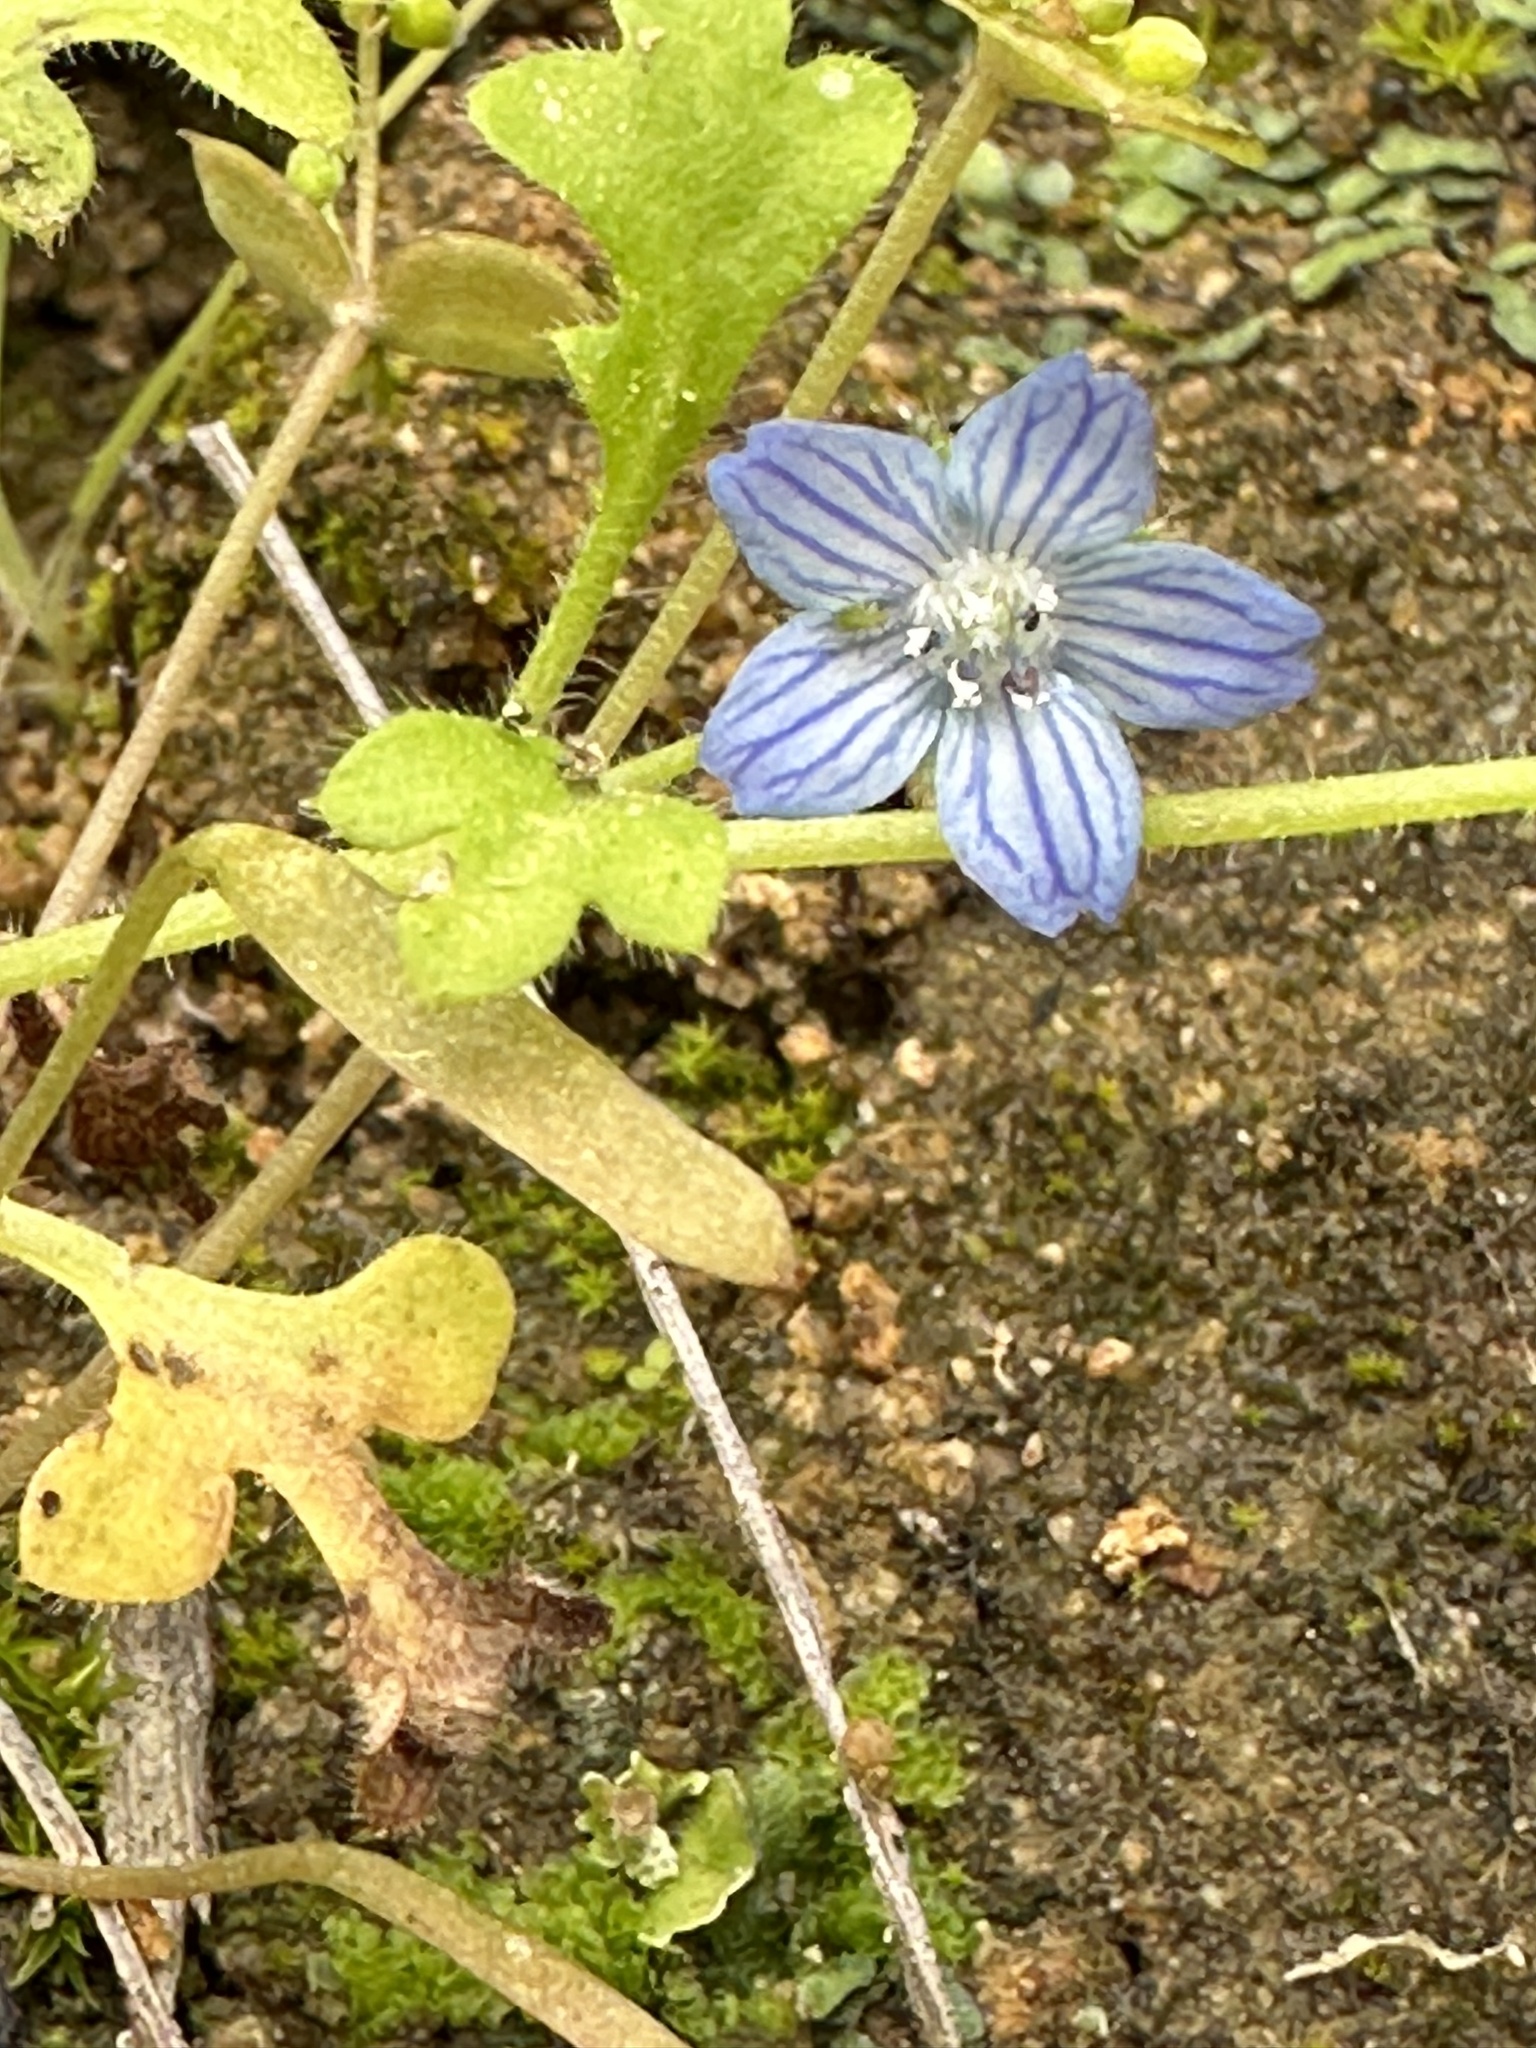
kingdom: Plantae
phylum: Tracheophyta
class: Magnoliopsida
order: Boraginales
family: Hydrophyllaceae
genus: Nemophila
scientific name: Nemophila menziesii
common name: Baby's-blue-eyes
